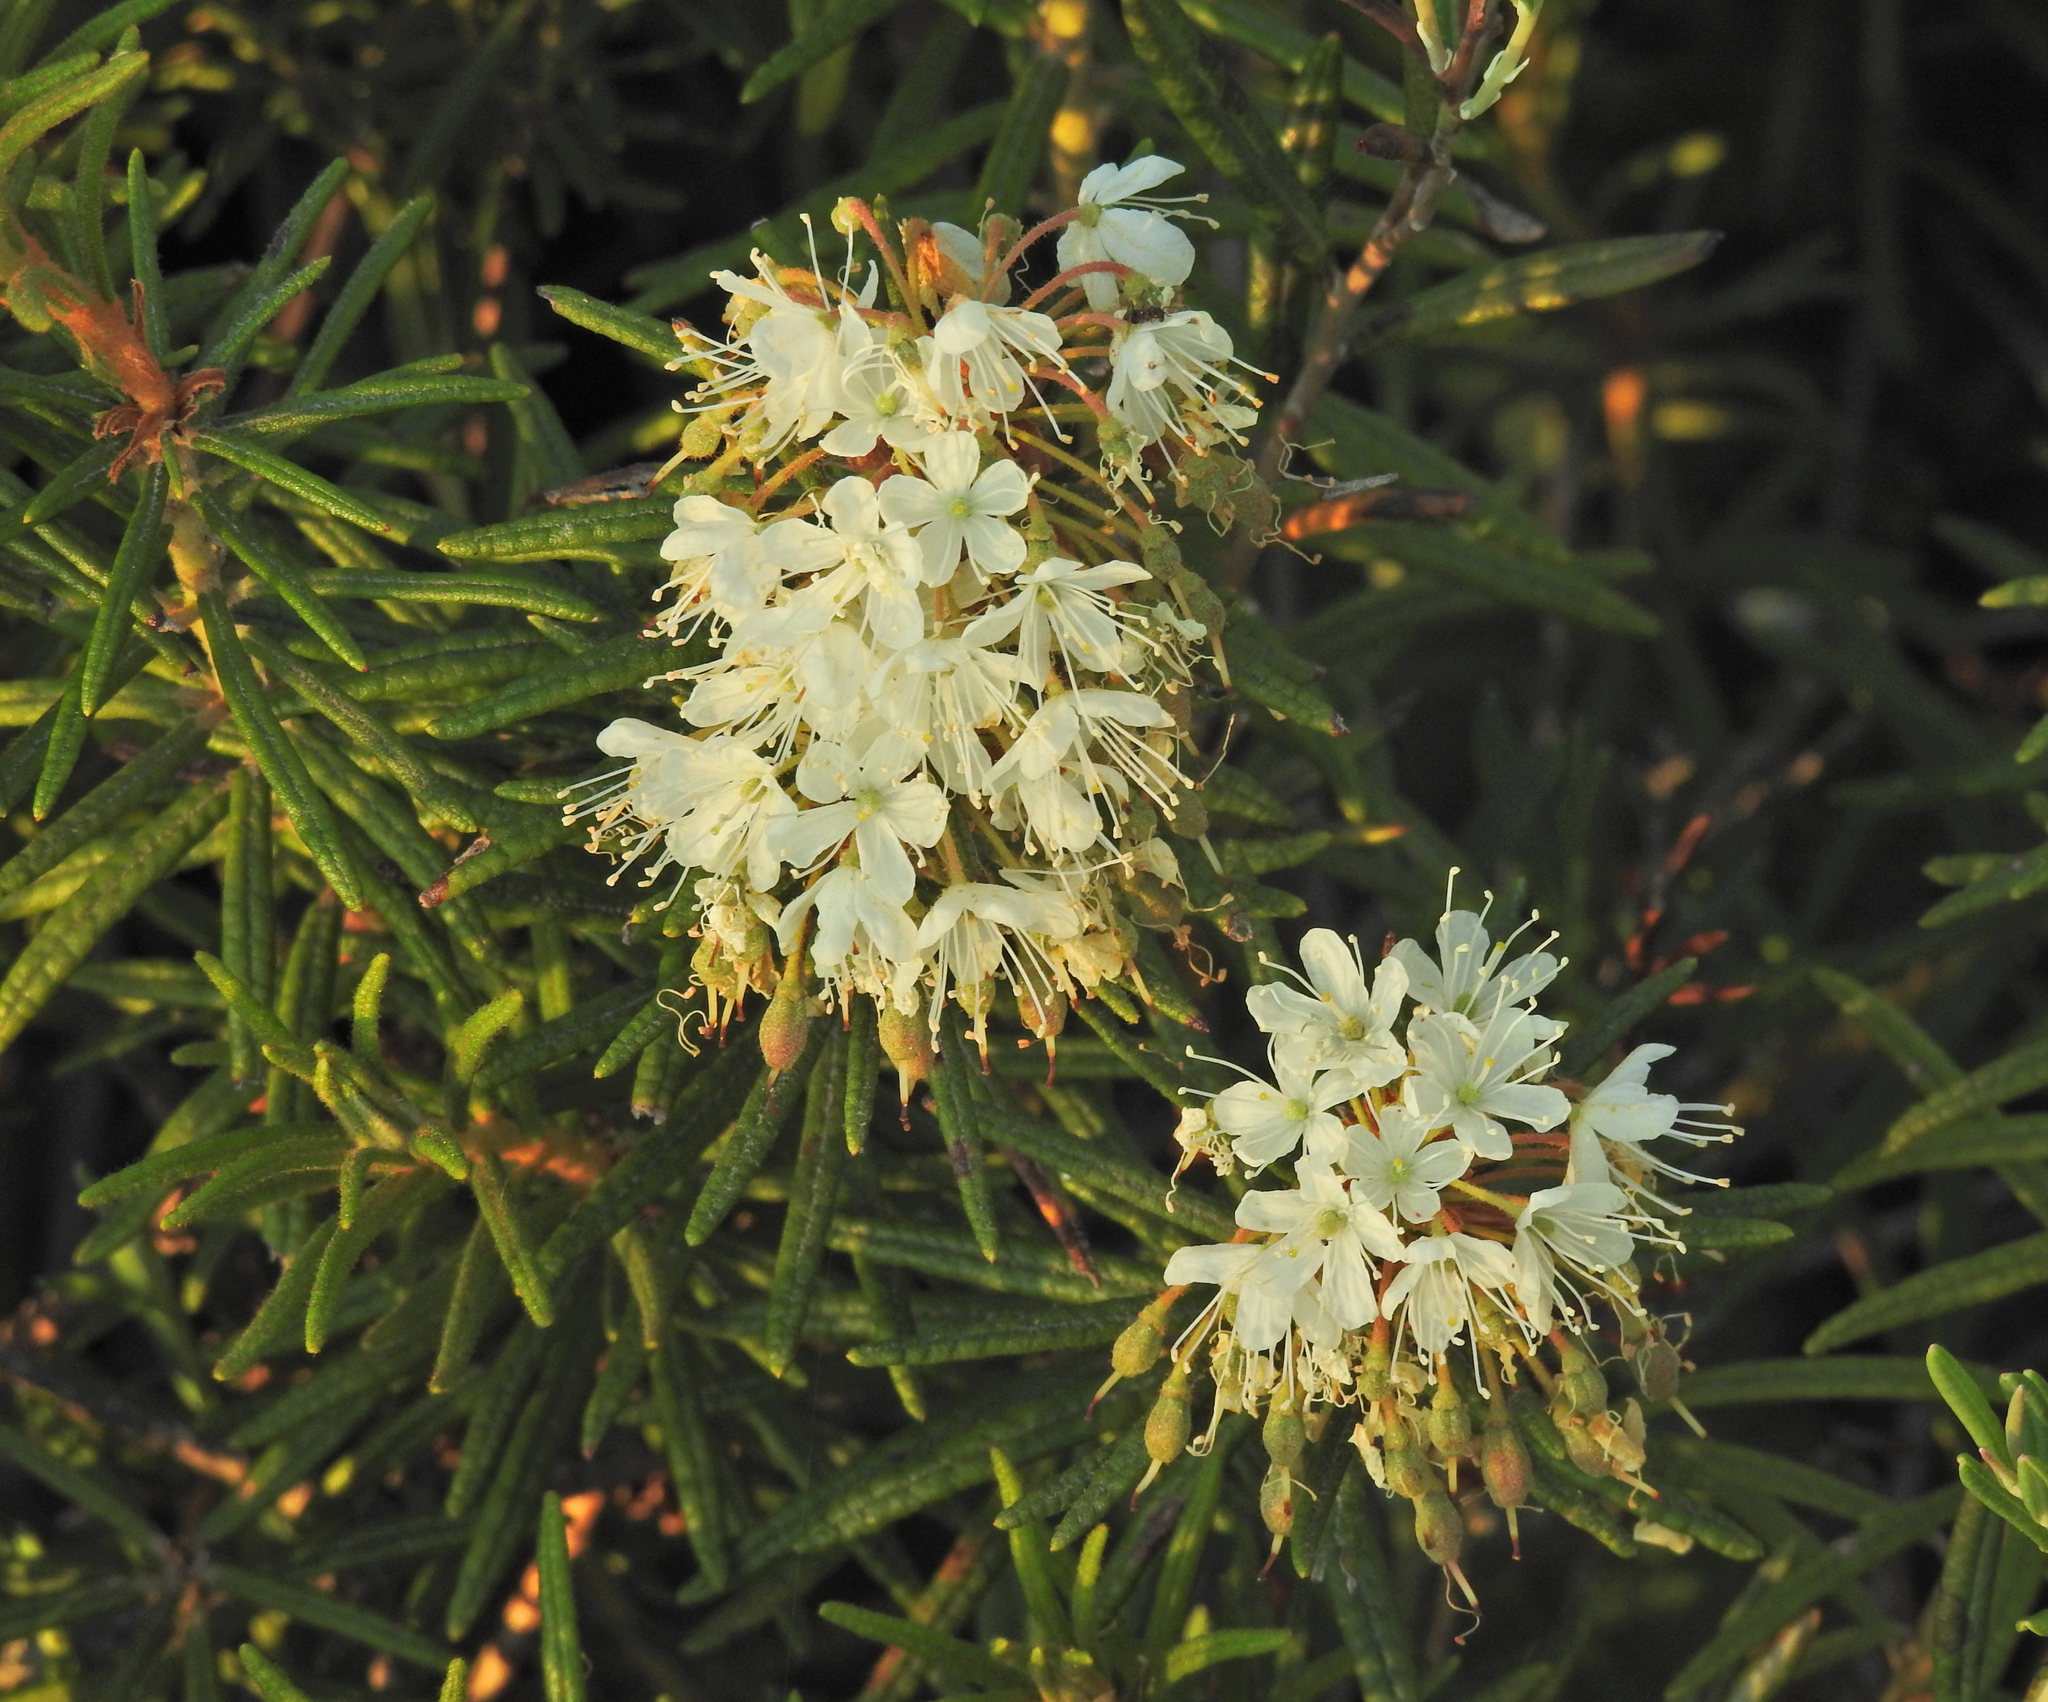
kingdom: Plantae
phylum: Tracheophyta
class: Magnoliopsida
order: Ericales
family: Ericaceae
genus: Rhododendron
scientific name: Rhododendron tomentosum
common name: Marsh labrador tea
